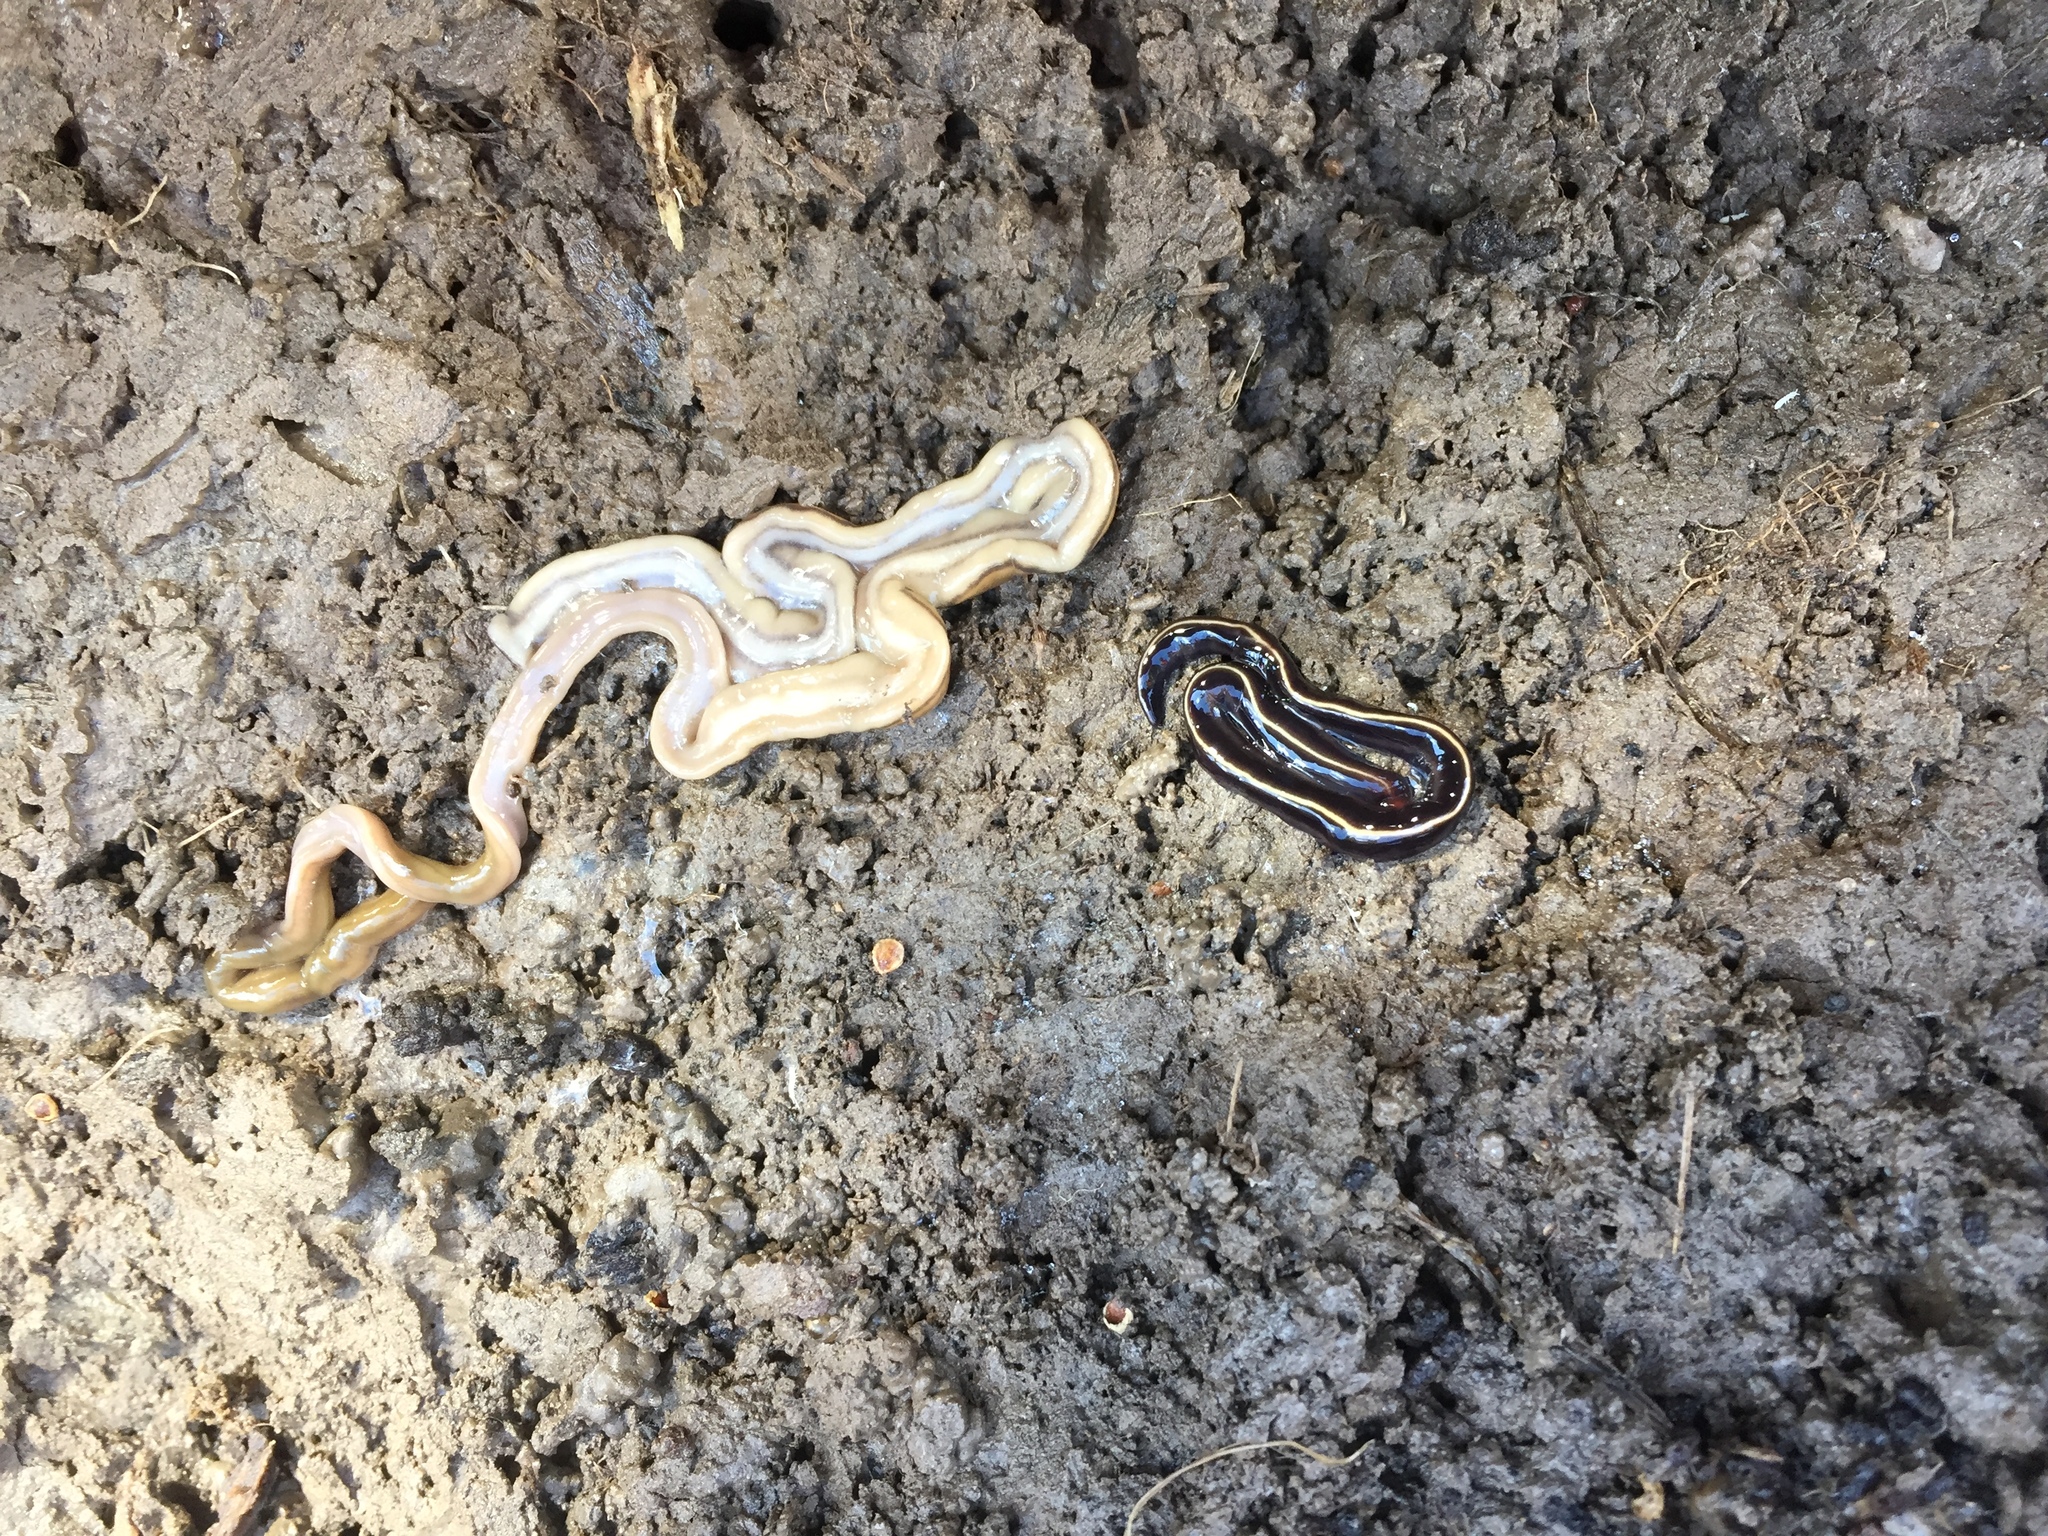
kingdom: Animalia
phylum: Platyhelminthes
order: Tricladida
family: Geoplanidae
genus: Caenoplana
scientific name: Caenoplana coerulea
